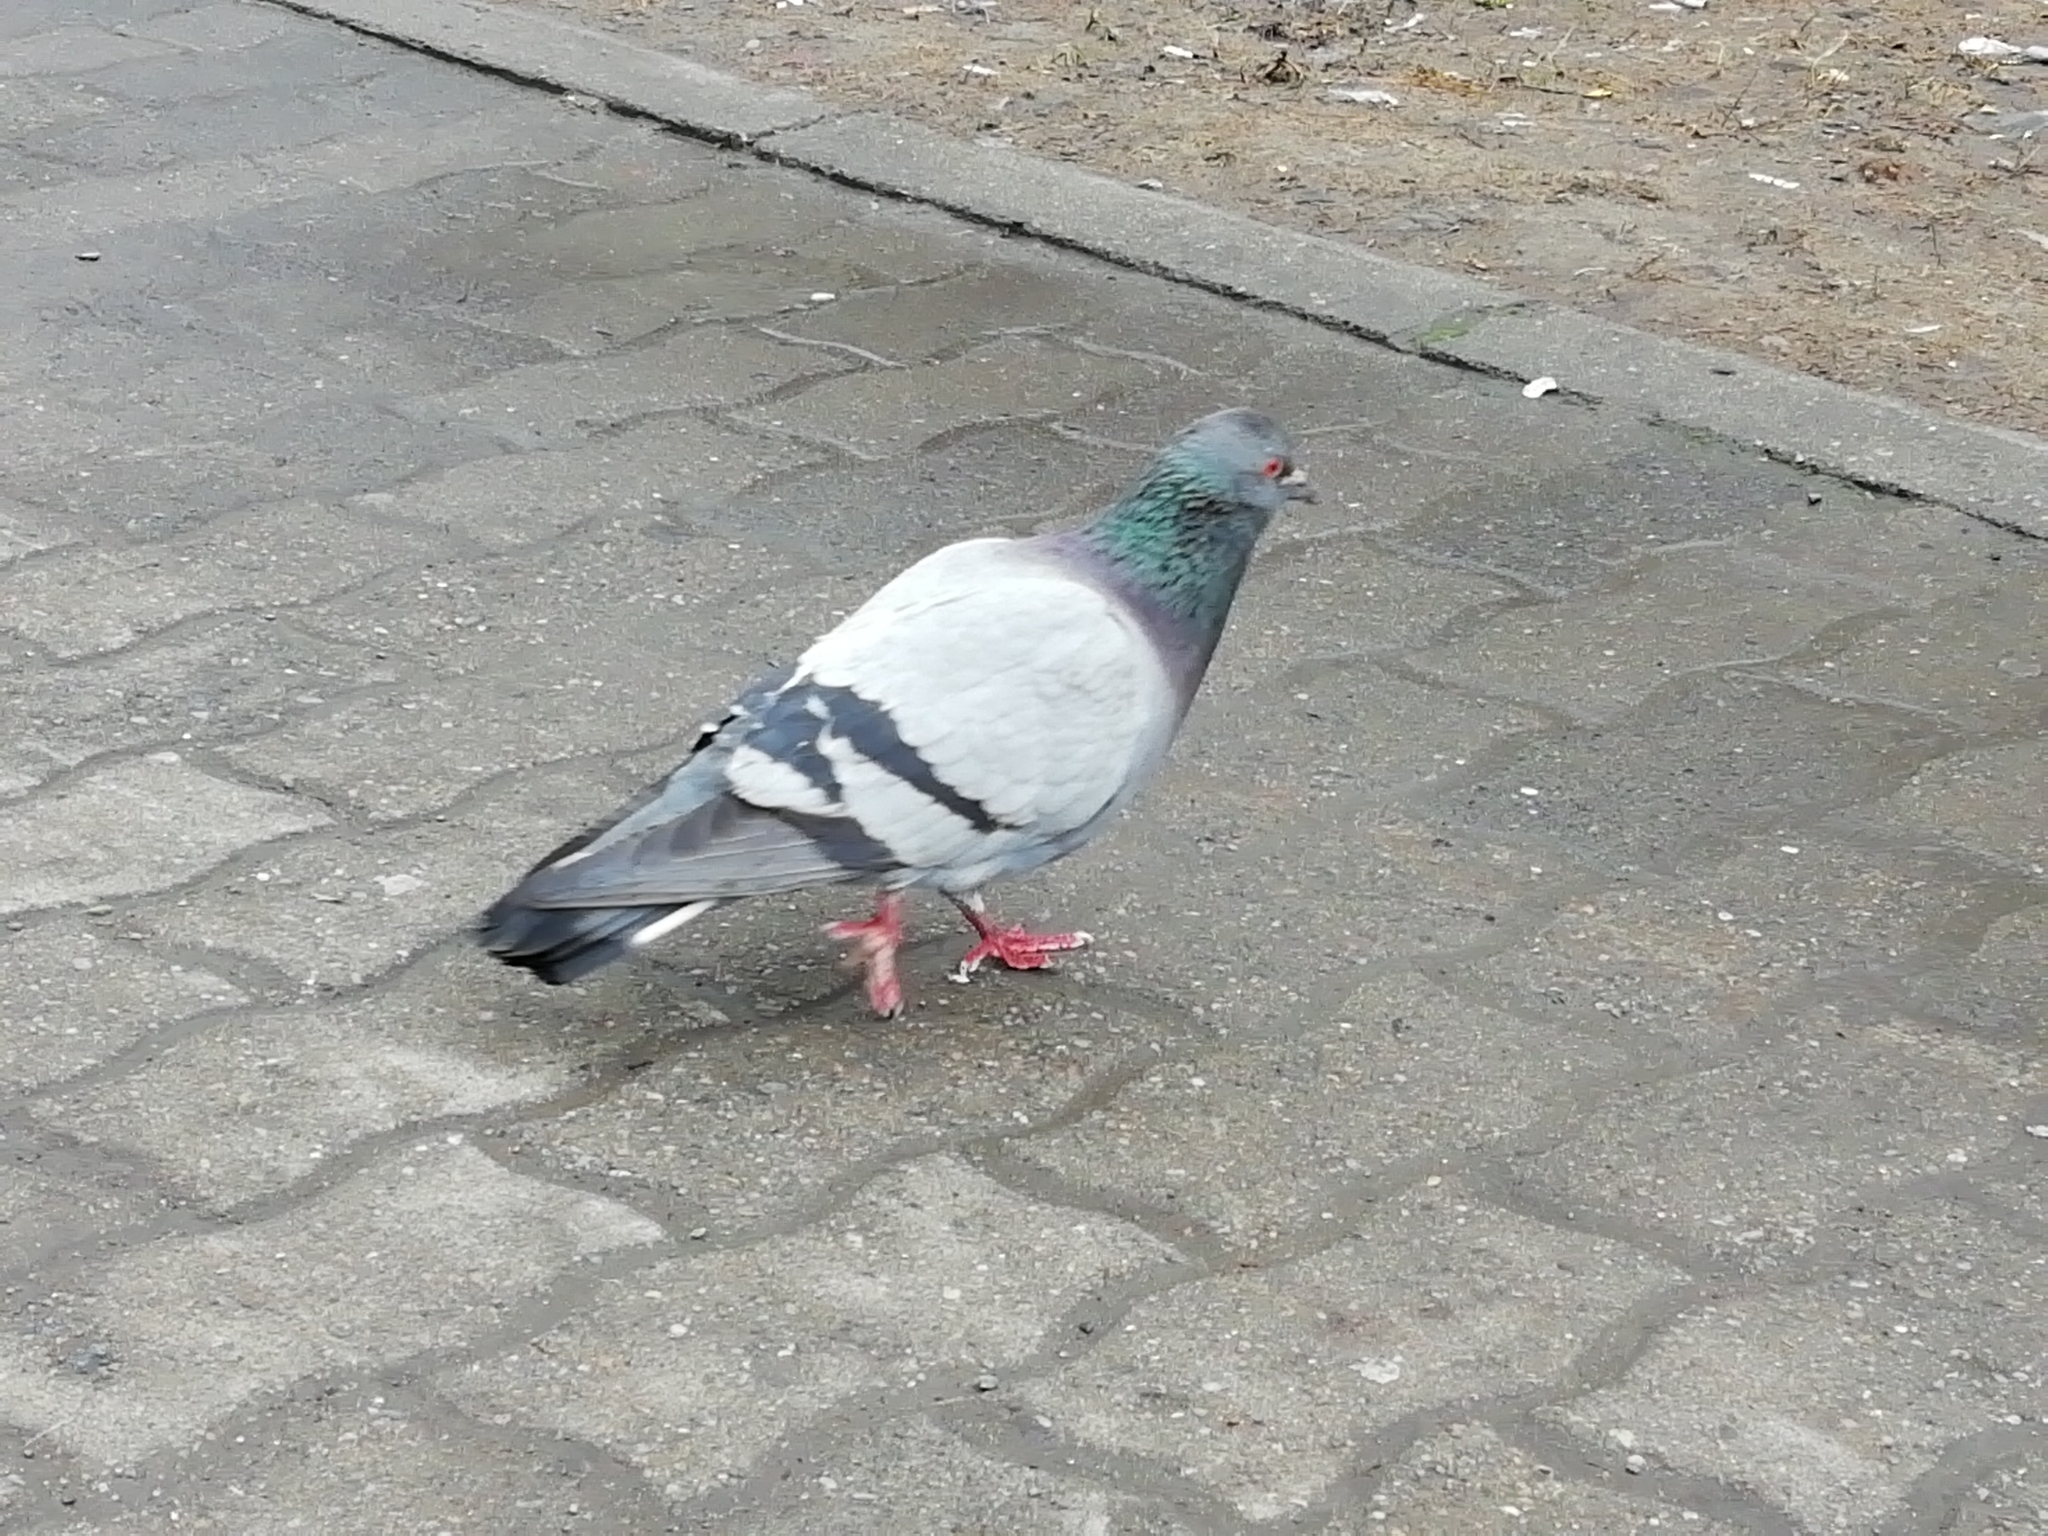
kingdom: Animalia
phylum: Chordata
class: Aves
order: Columbiformes
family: Columbidae
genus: Columba
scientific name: Columba livia
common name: Rock pigeon
